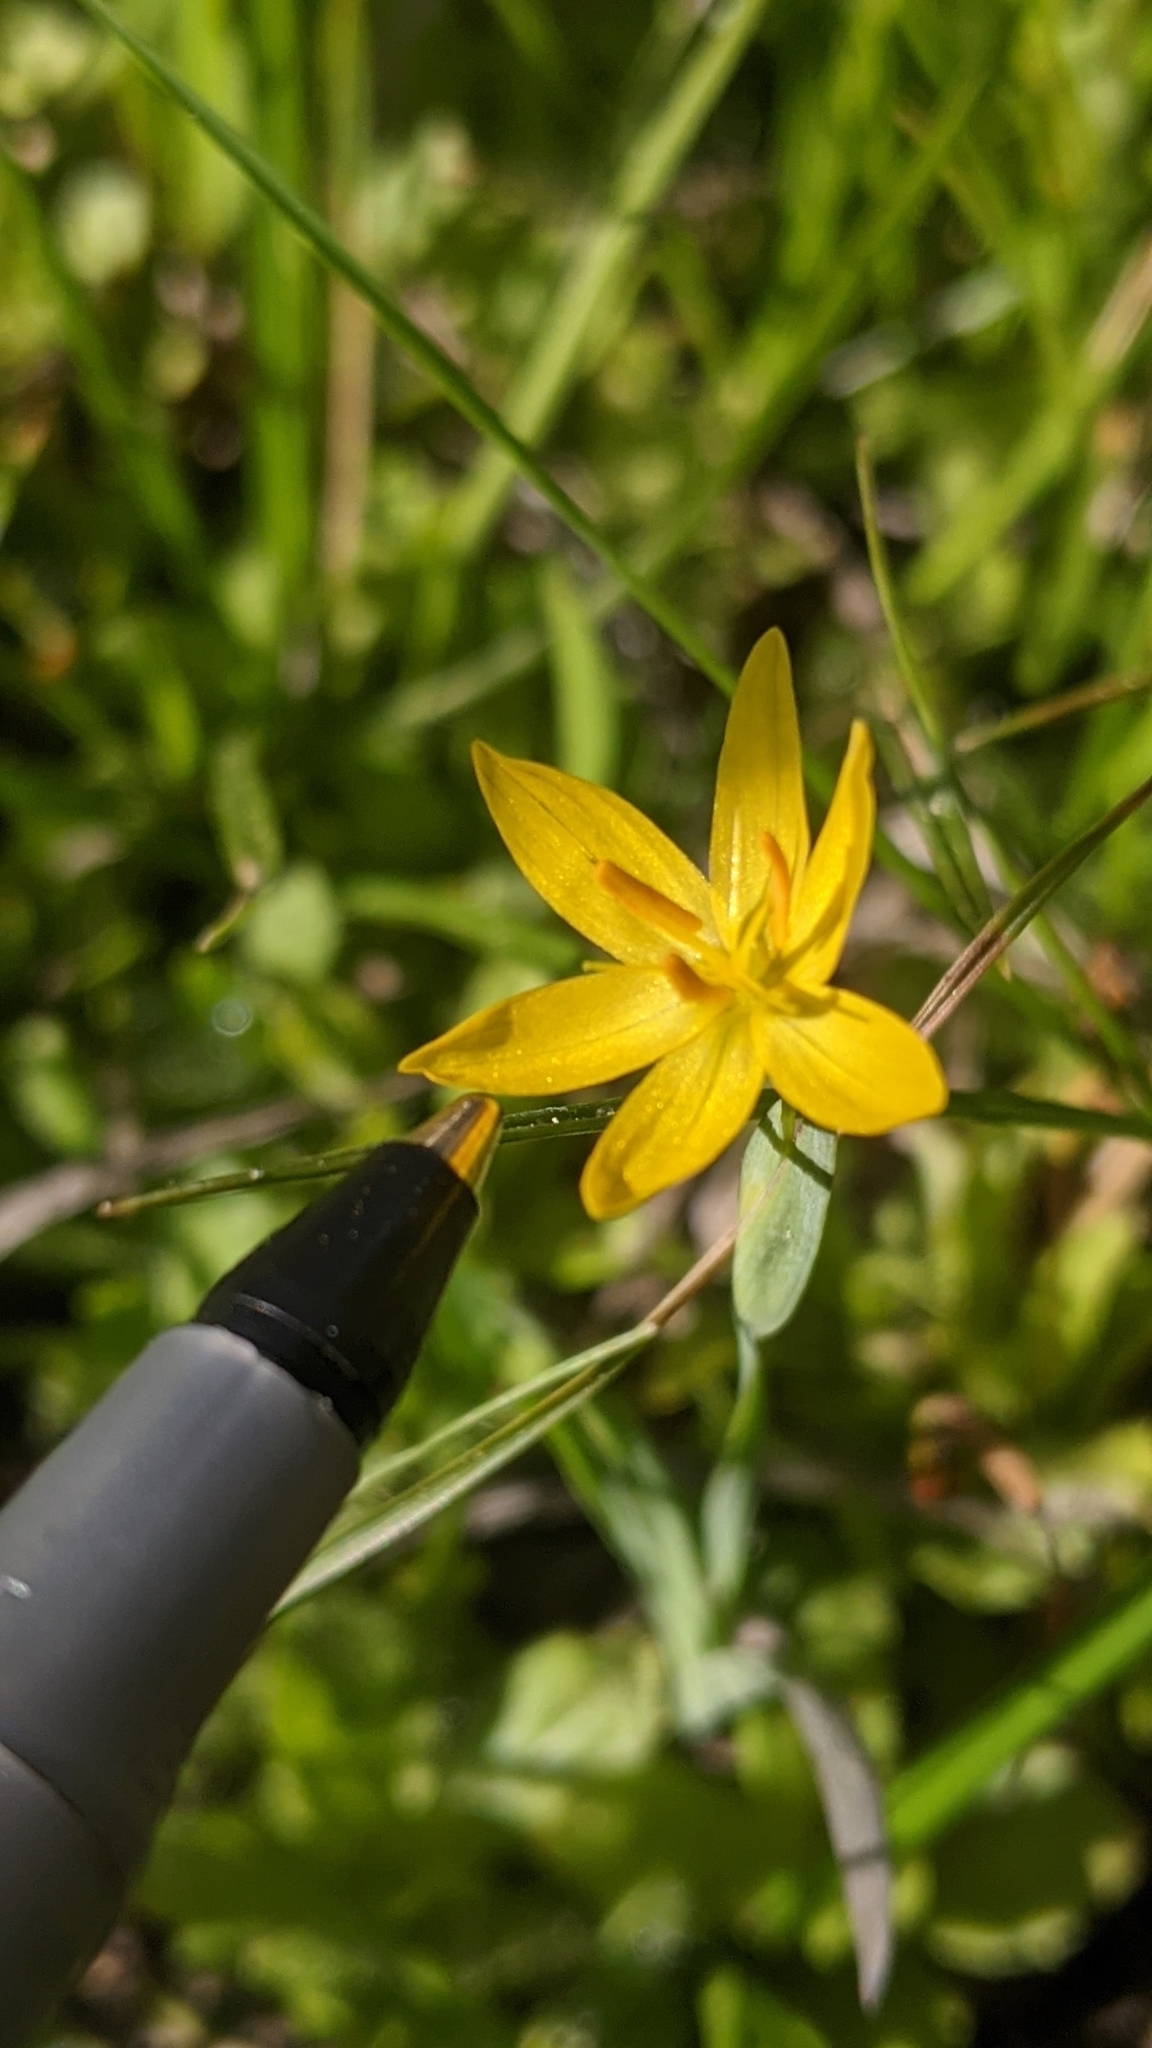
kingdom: Plantae
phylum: Tracheophyta
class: Liliopsida
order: Asparagales
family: Iridaceae
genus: Sisyrinchium
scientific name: Sisyrinchium californicum
